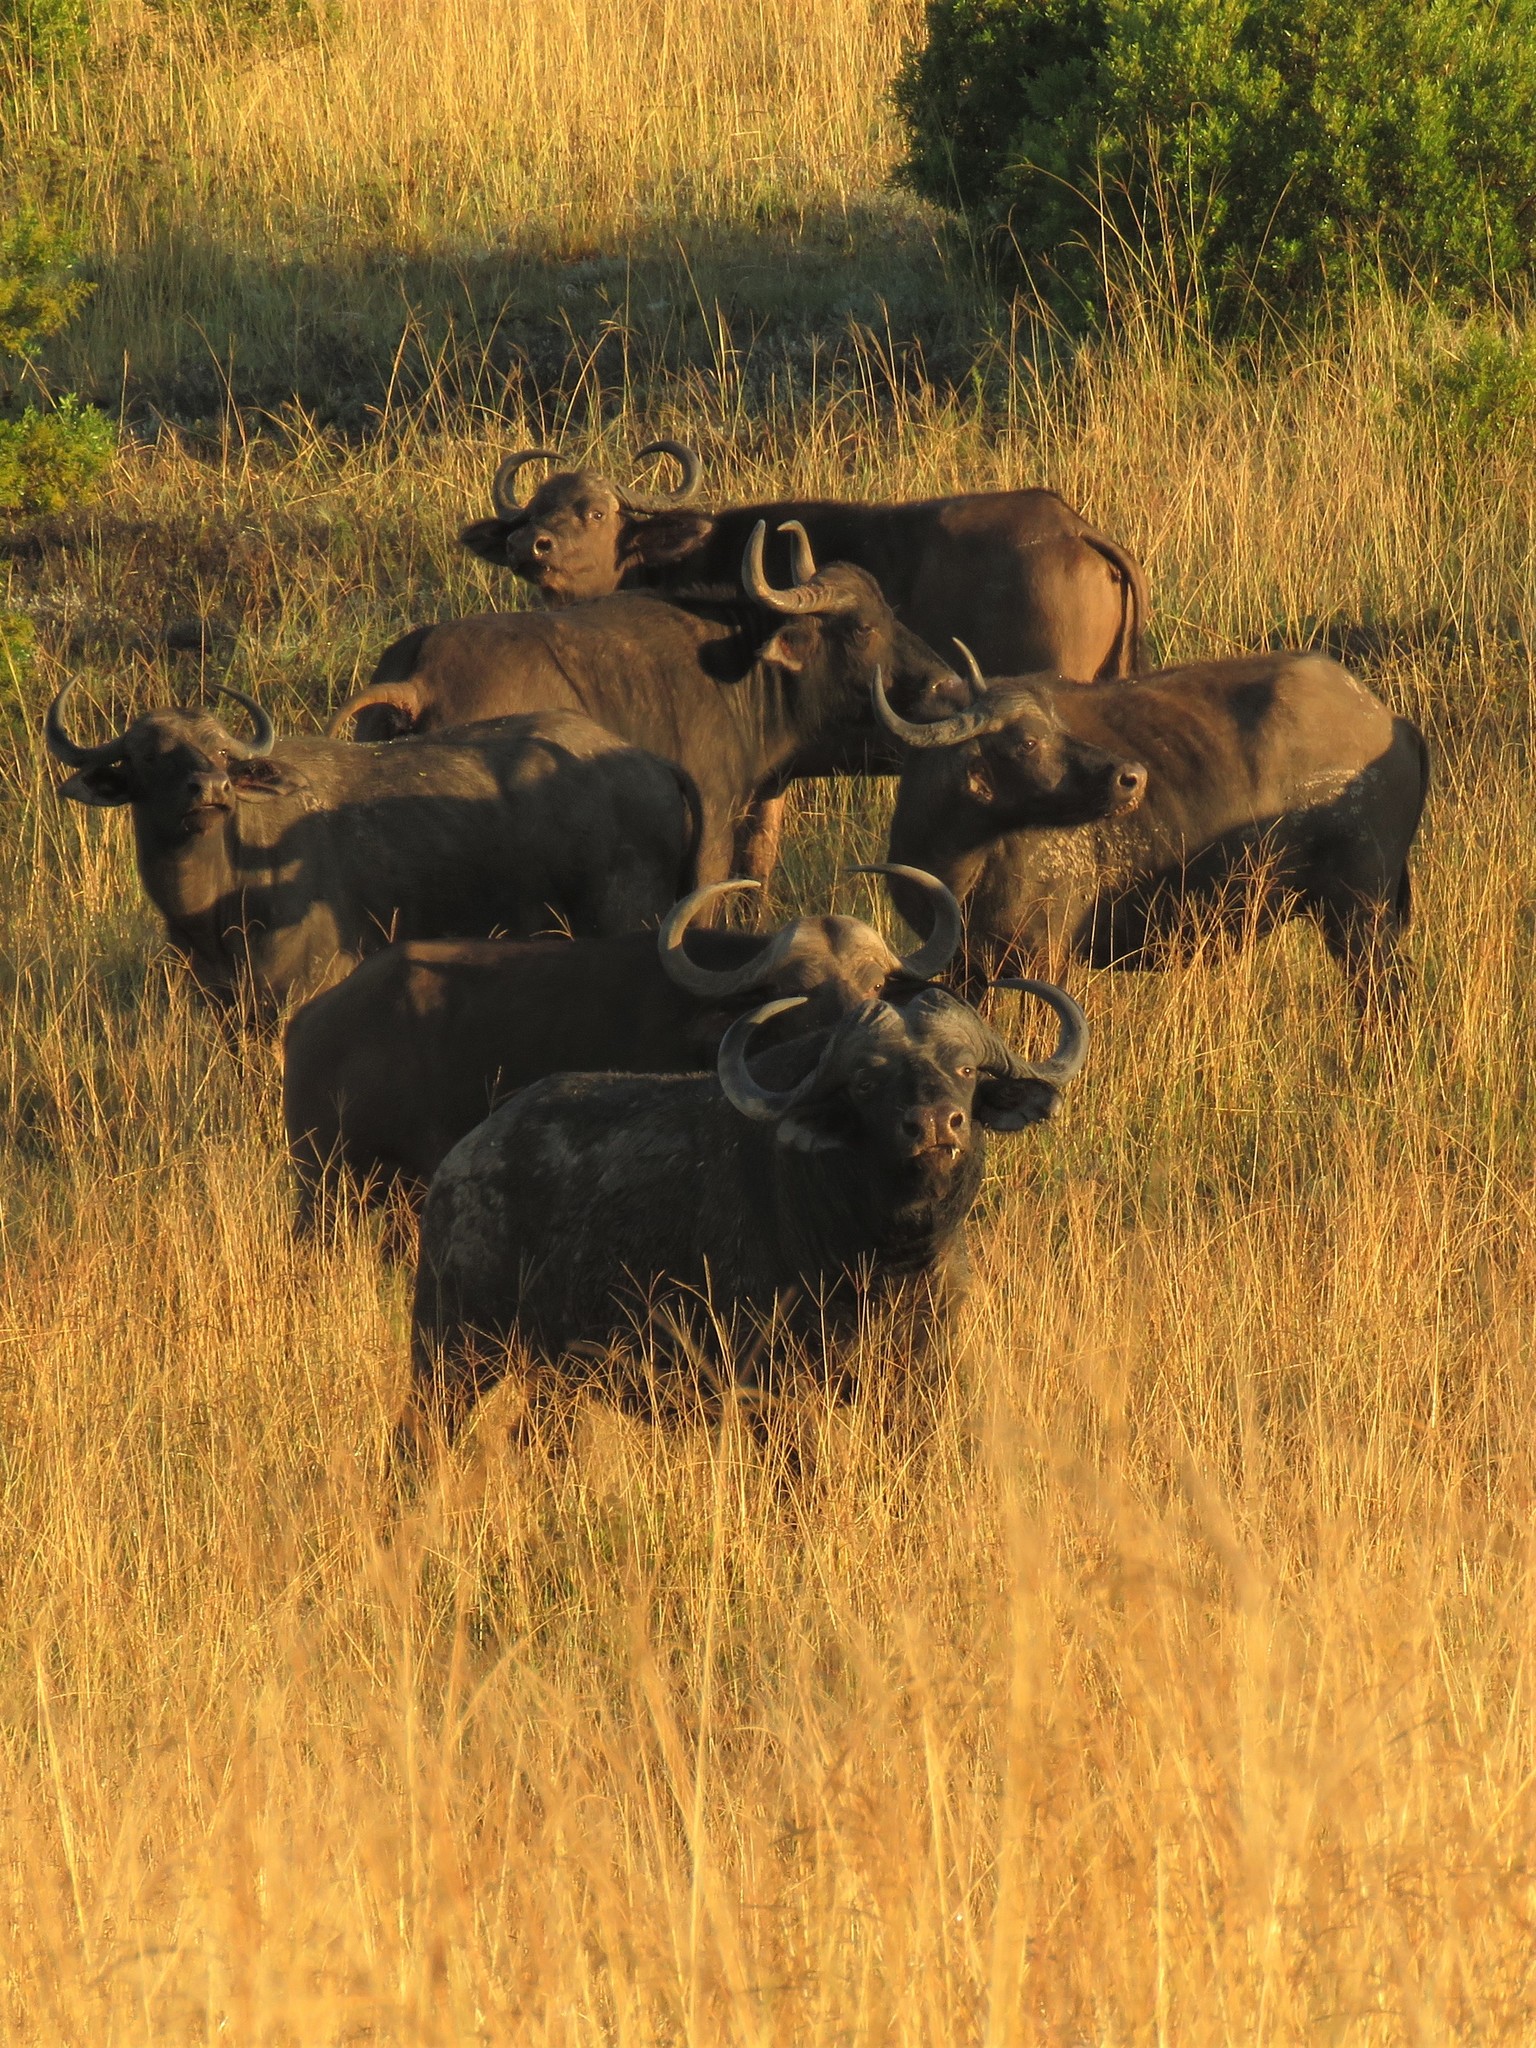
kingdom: Animalia
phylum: Chordata
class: Mammalia
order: Artiodactyla
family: Bovidae
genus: Syncerus
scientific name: Syncerus caffer
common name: African buffalo
